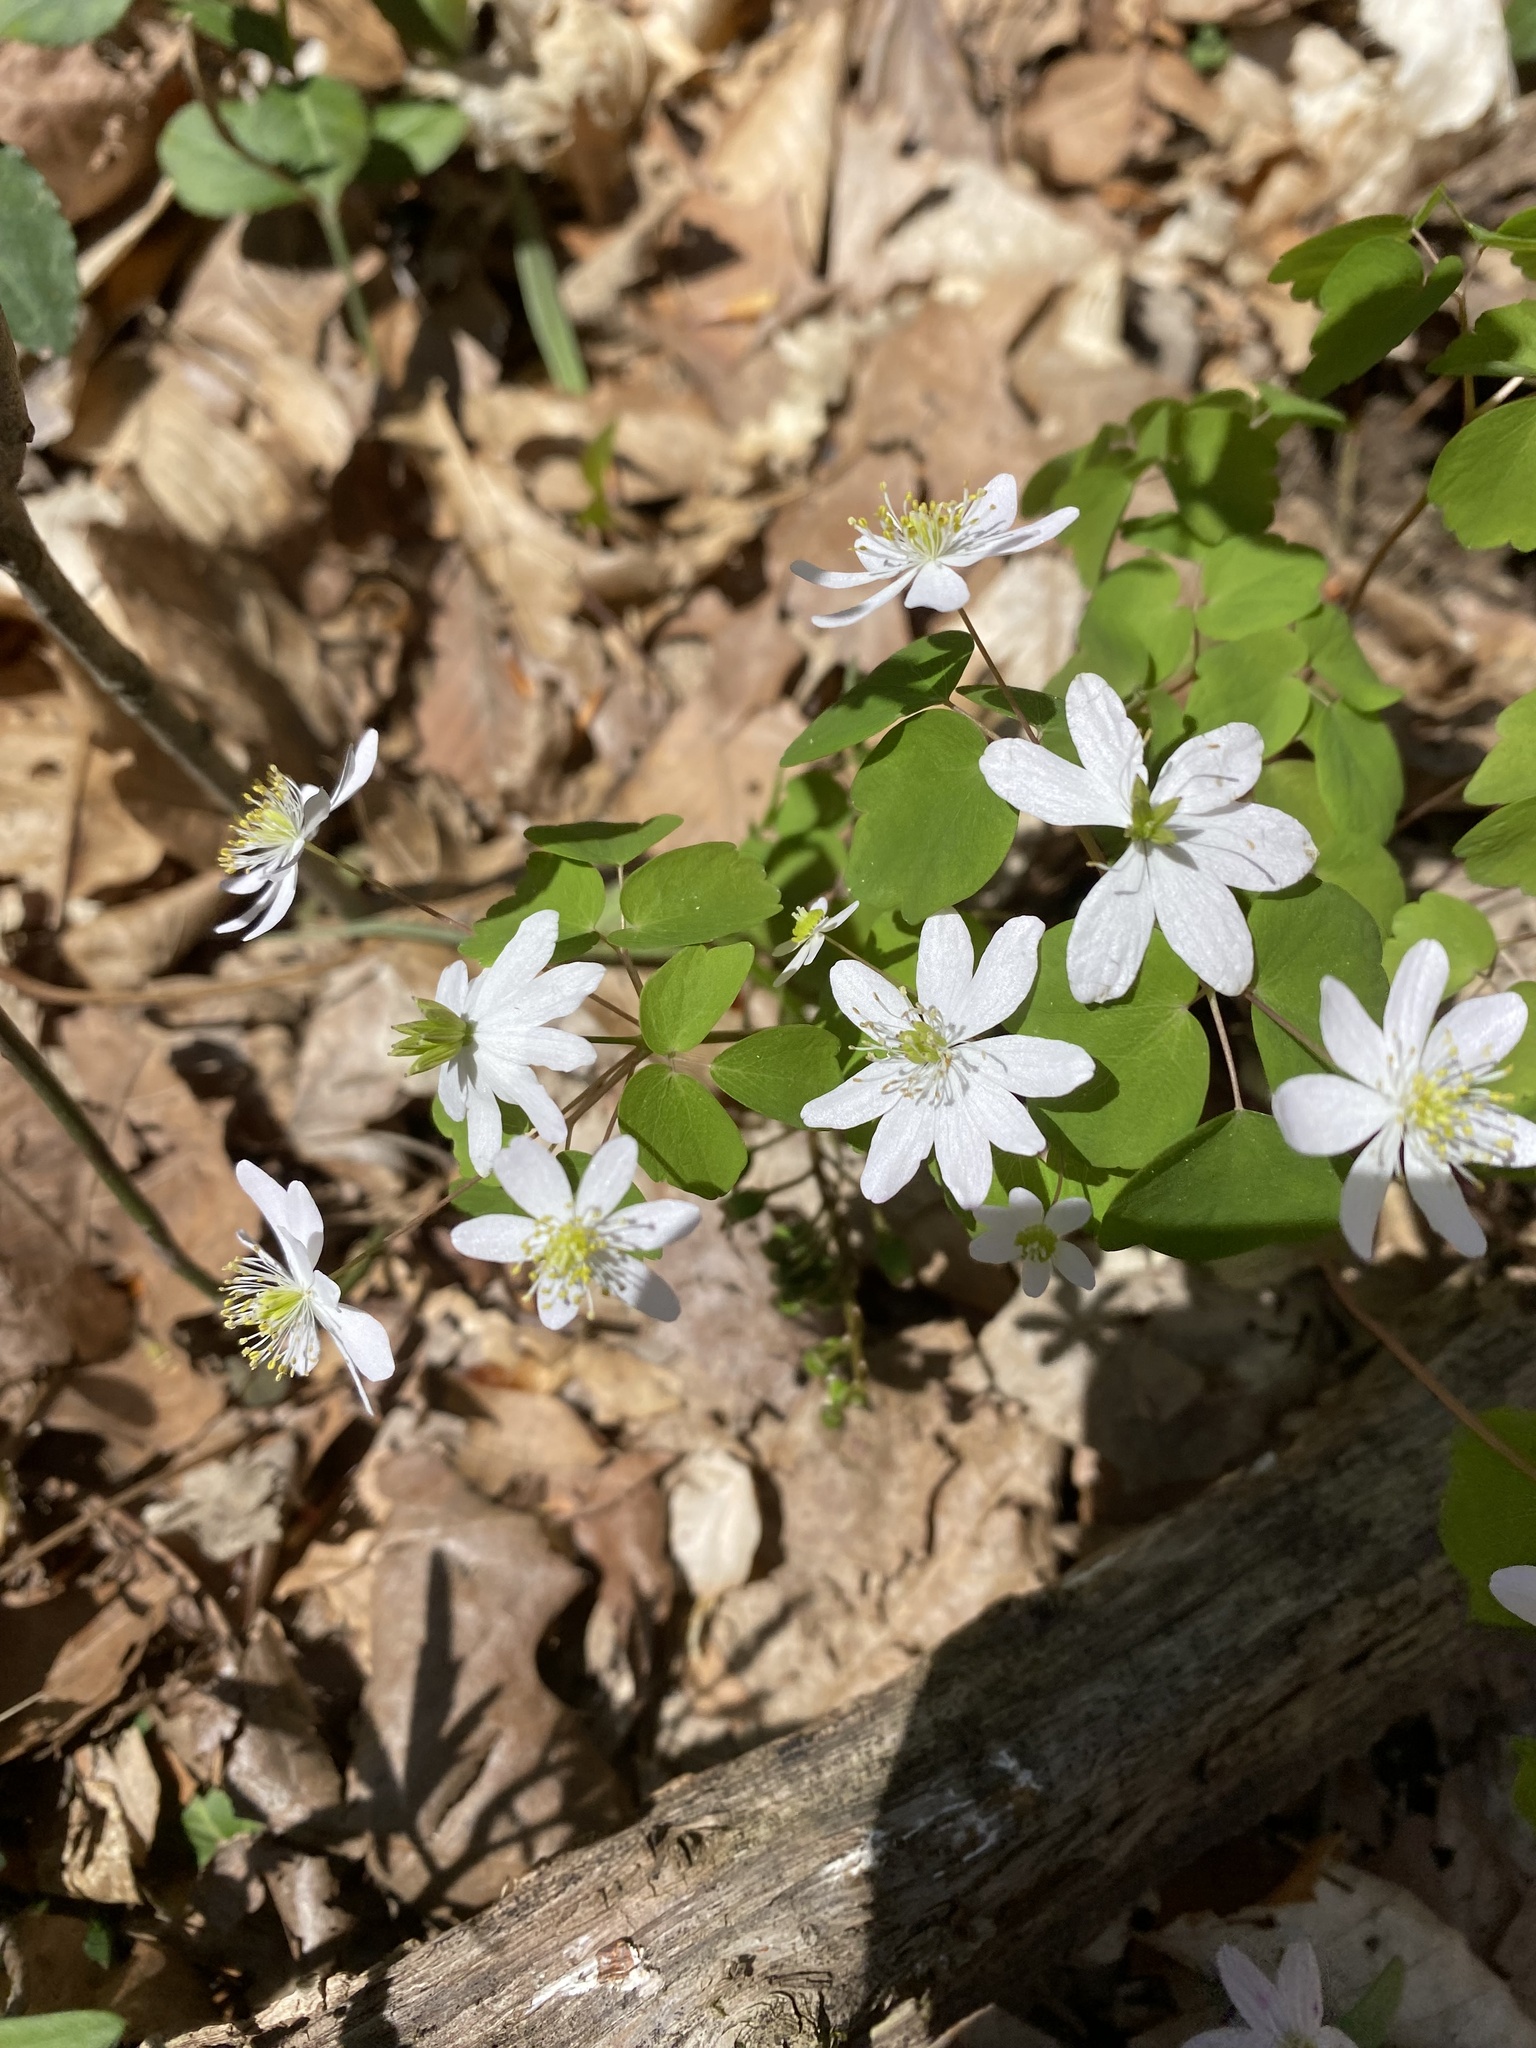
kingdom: Plantae
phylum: Tracheophyta
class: Magnoliopsida
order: Ranunculales
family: Ranunculaceae
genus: Thalictrum
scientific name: Thalictrum thalictroides
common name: Rue-anemone
